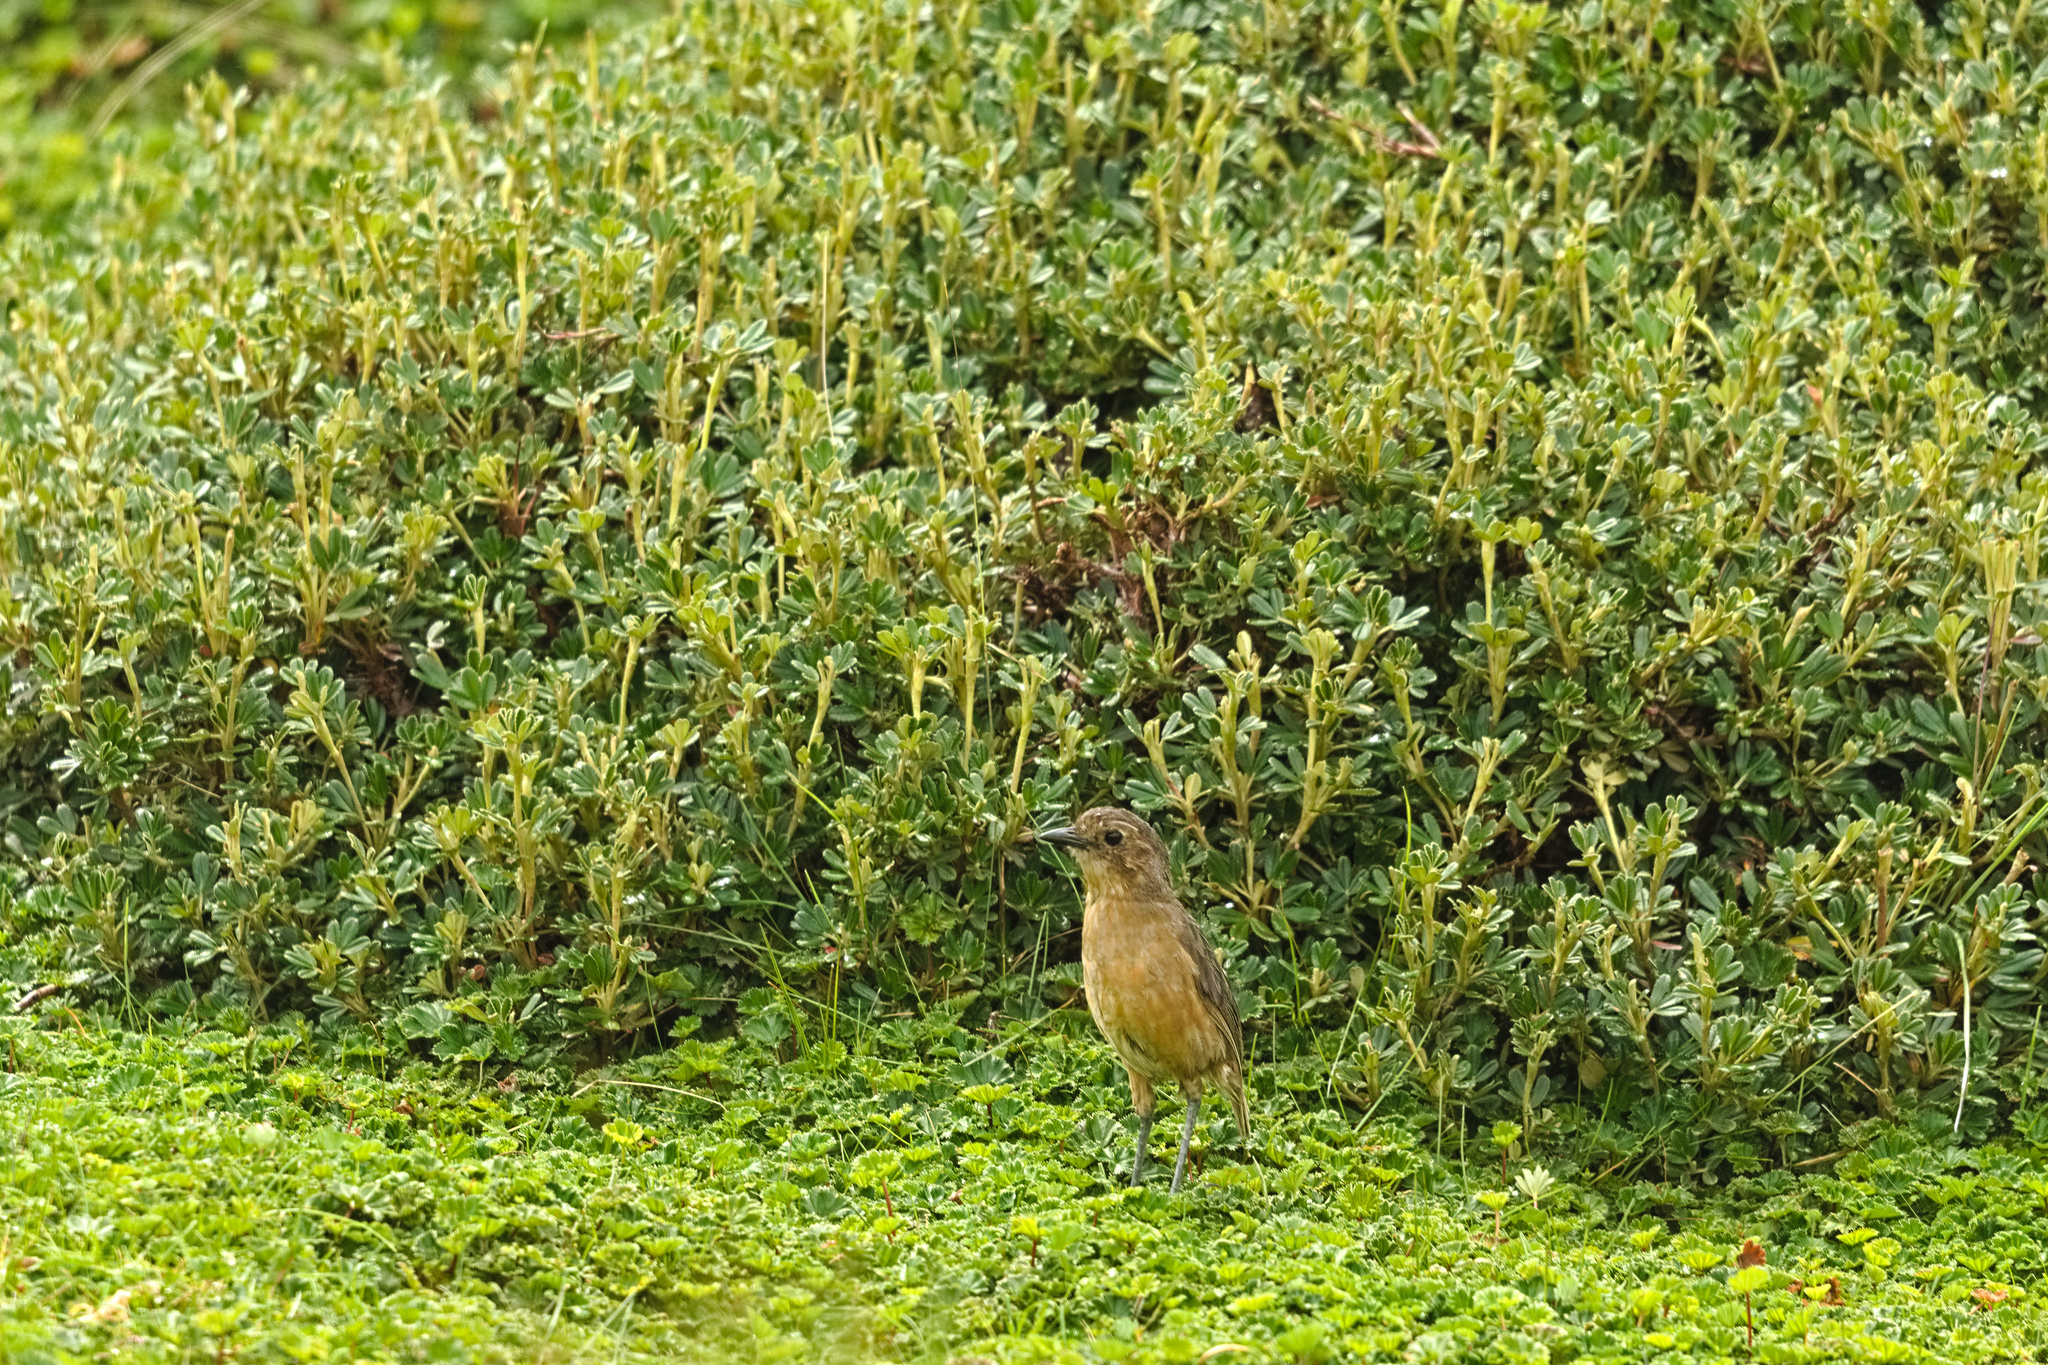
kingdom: Animalia
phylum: Chordata
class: Aves
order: Passeriformes
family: Grallariidae
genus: Grallaria
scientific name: Grallaria quitensis
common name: Tawny antpitta
